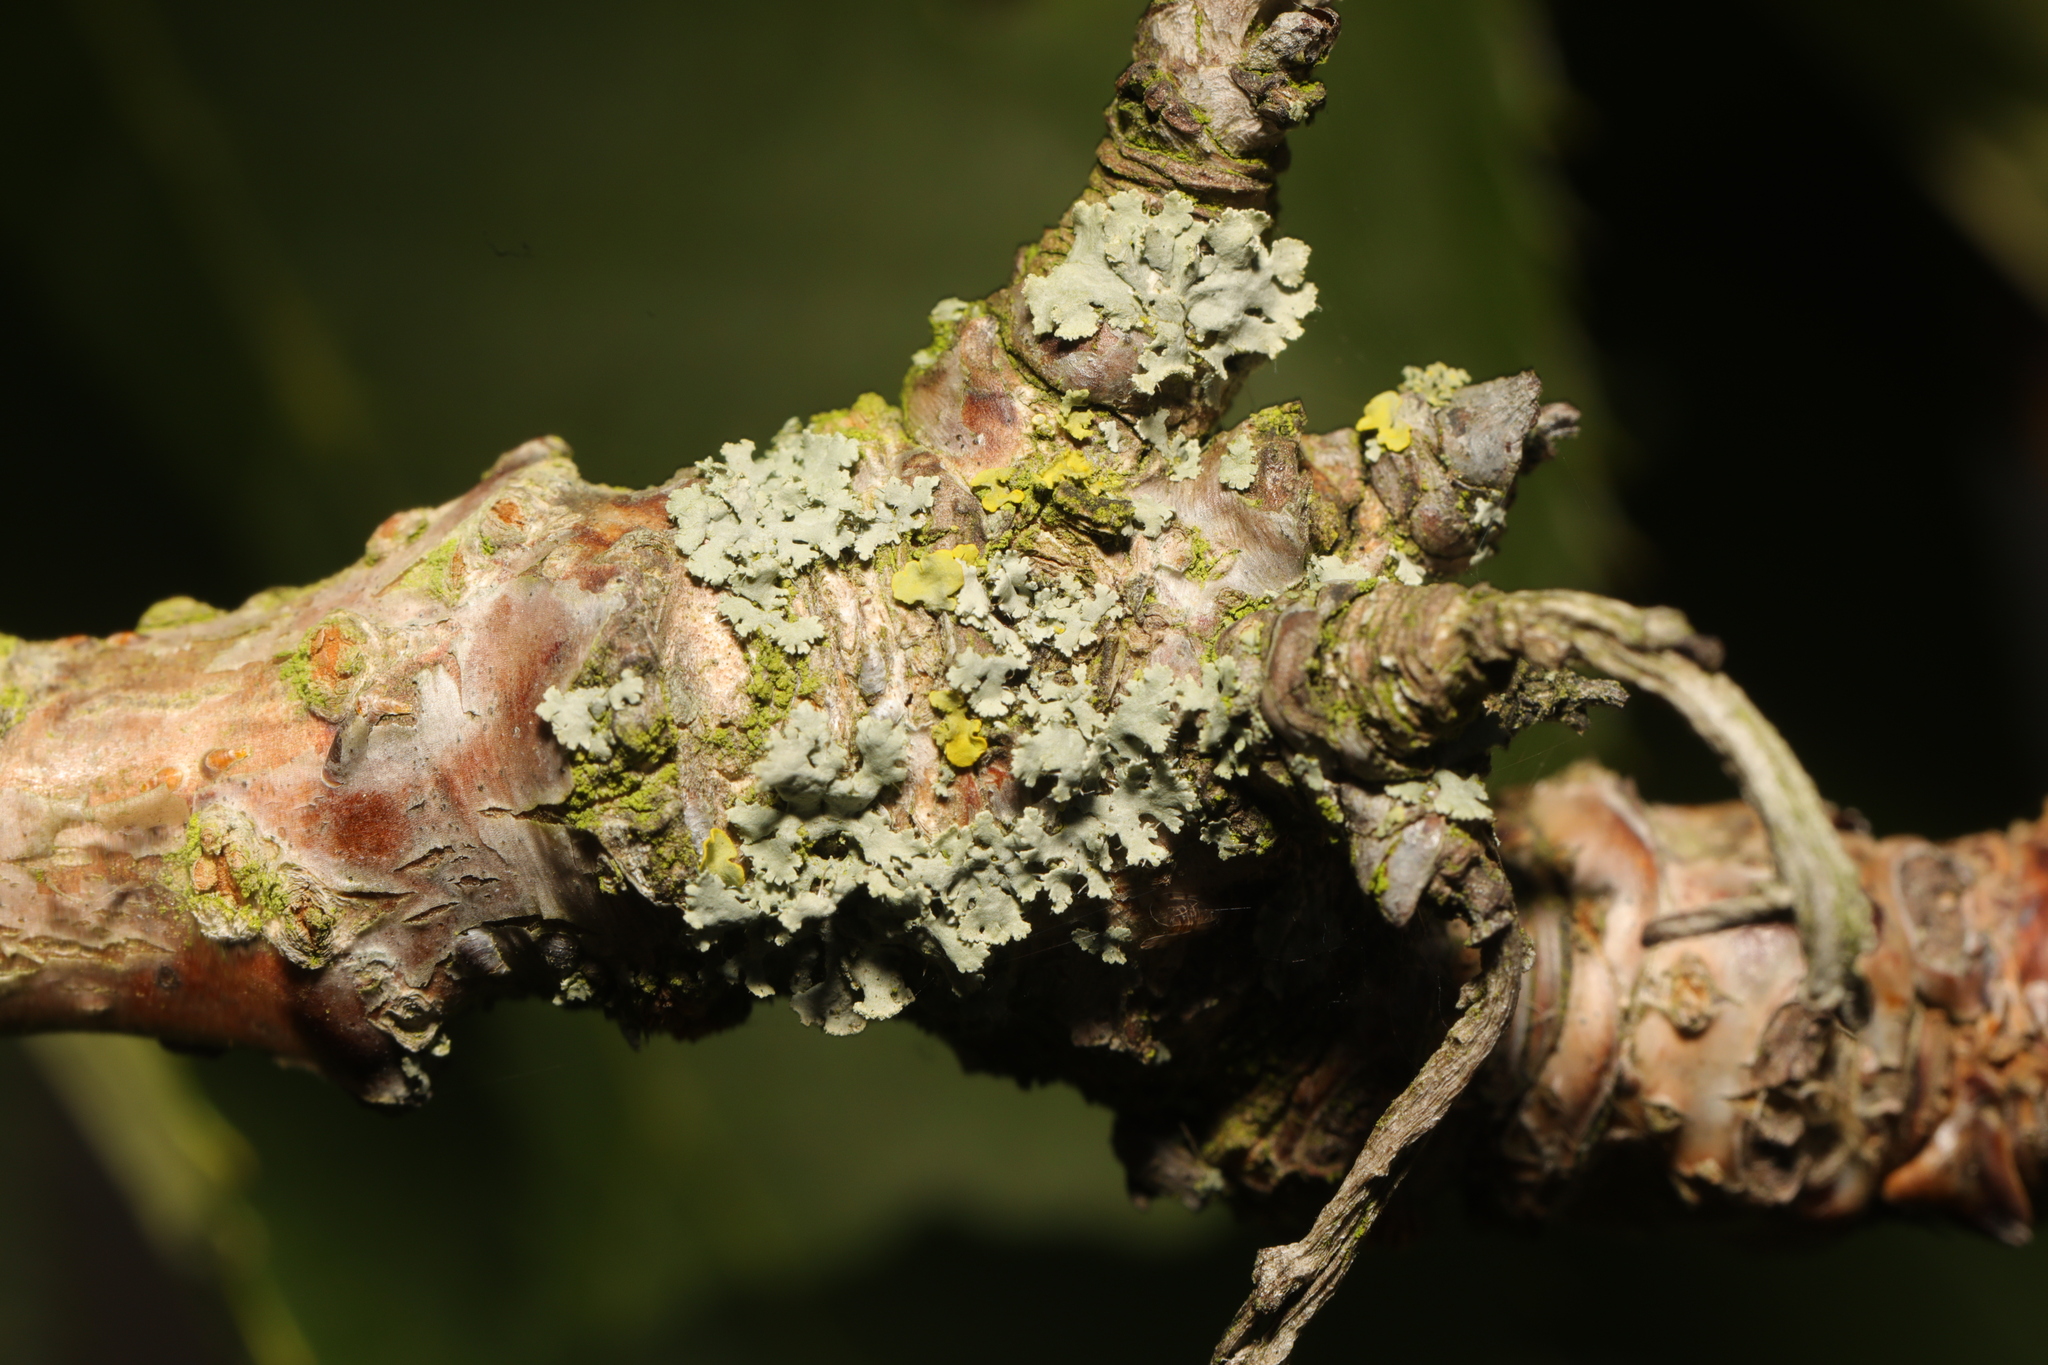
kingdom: Fungi
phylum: Ascomycota
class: Lecanoromycetes
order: Caliciales
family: Physciaceae
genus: Physcia
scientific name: Physcia tenella
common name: Fringed rosette lichen
